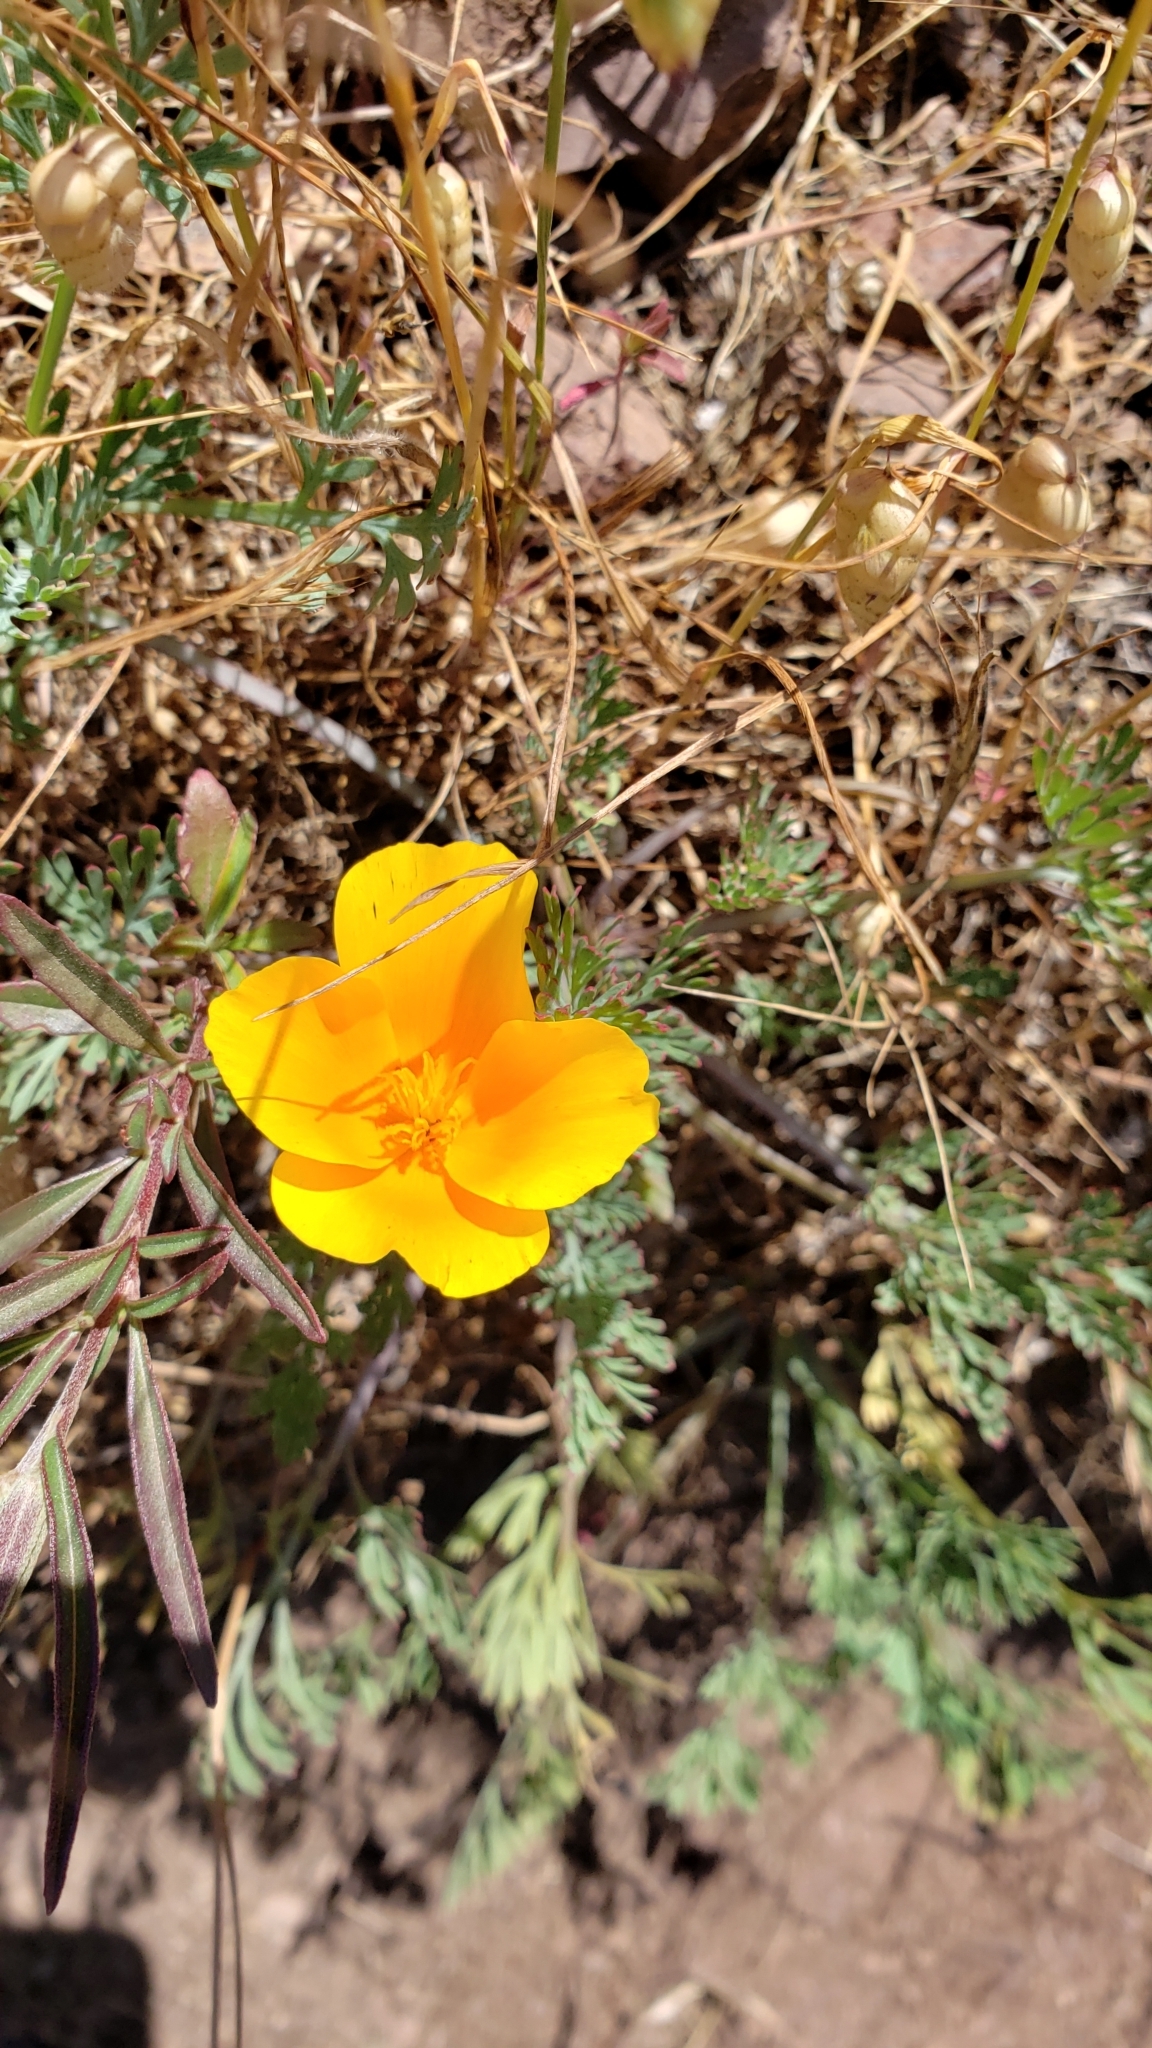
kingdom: Plantae
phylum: Tracheophyta
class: Magnoliopsida
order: Ranunculales
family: Papaveraceae
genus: Eschscholzia
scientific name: Eschscholzia californica
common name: California poppy
